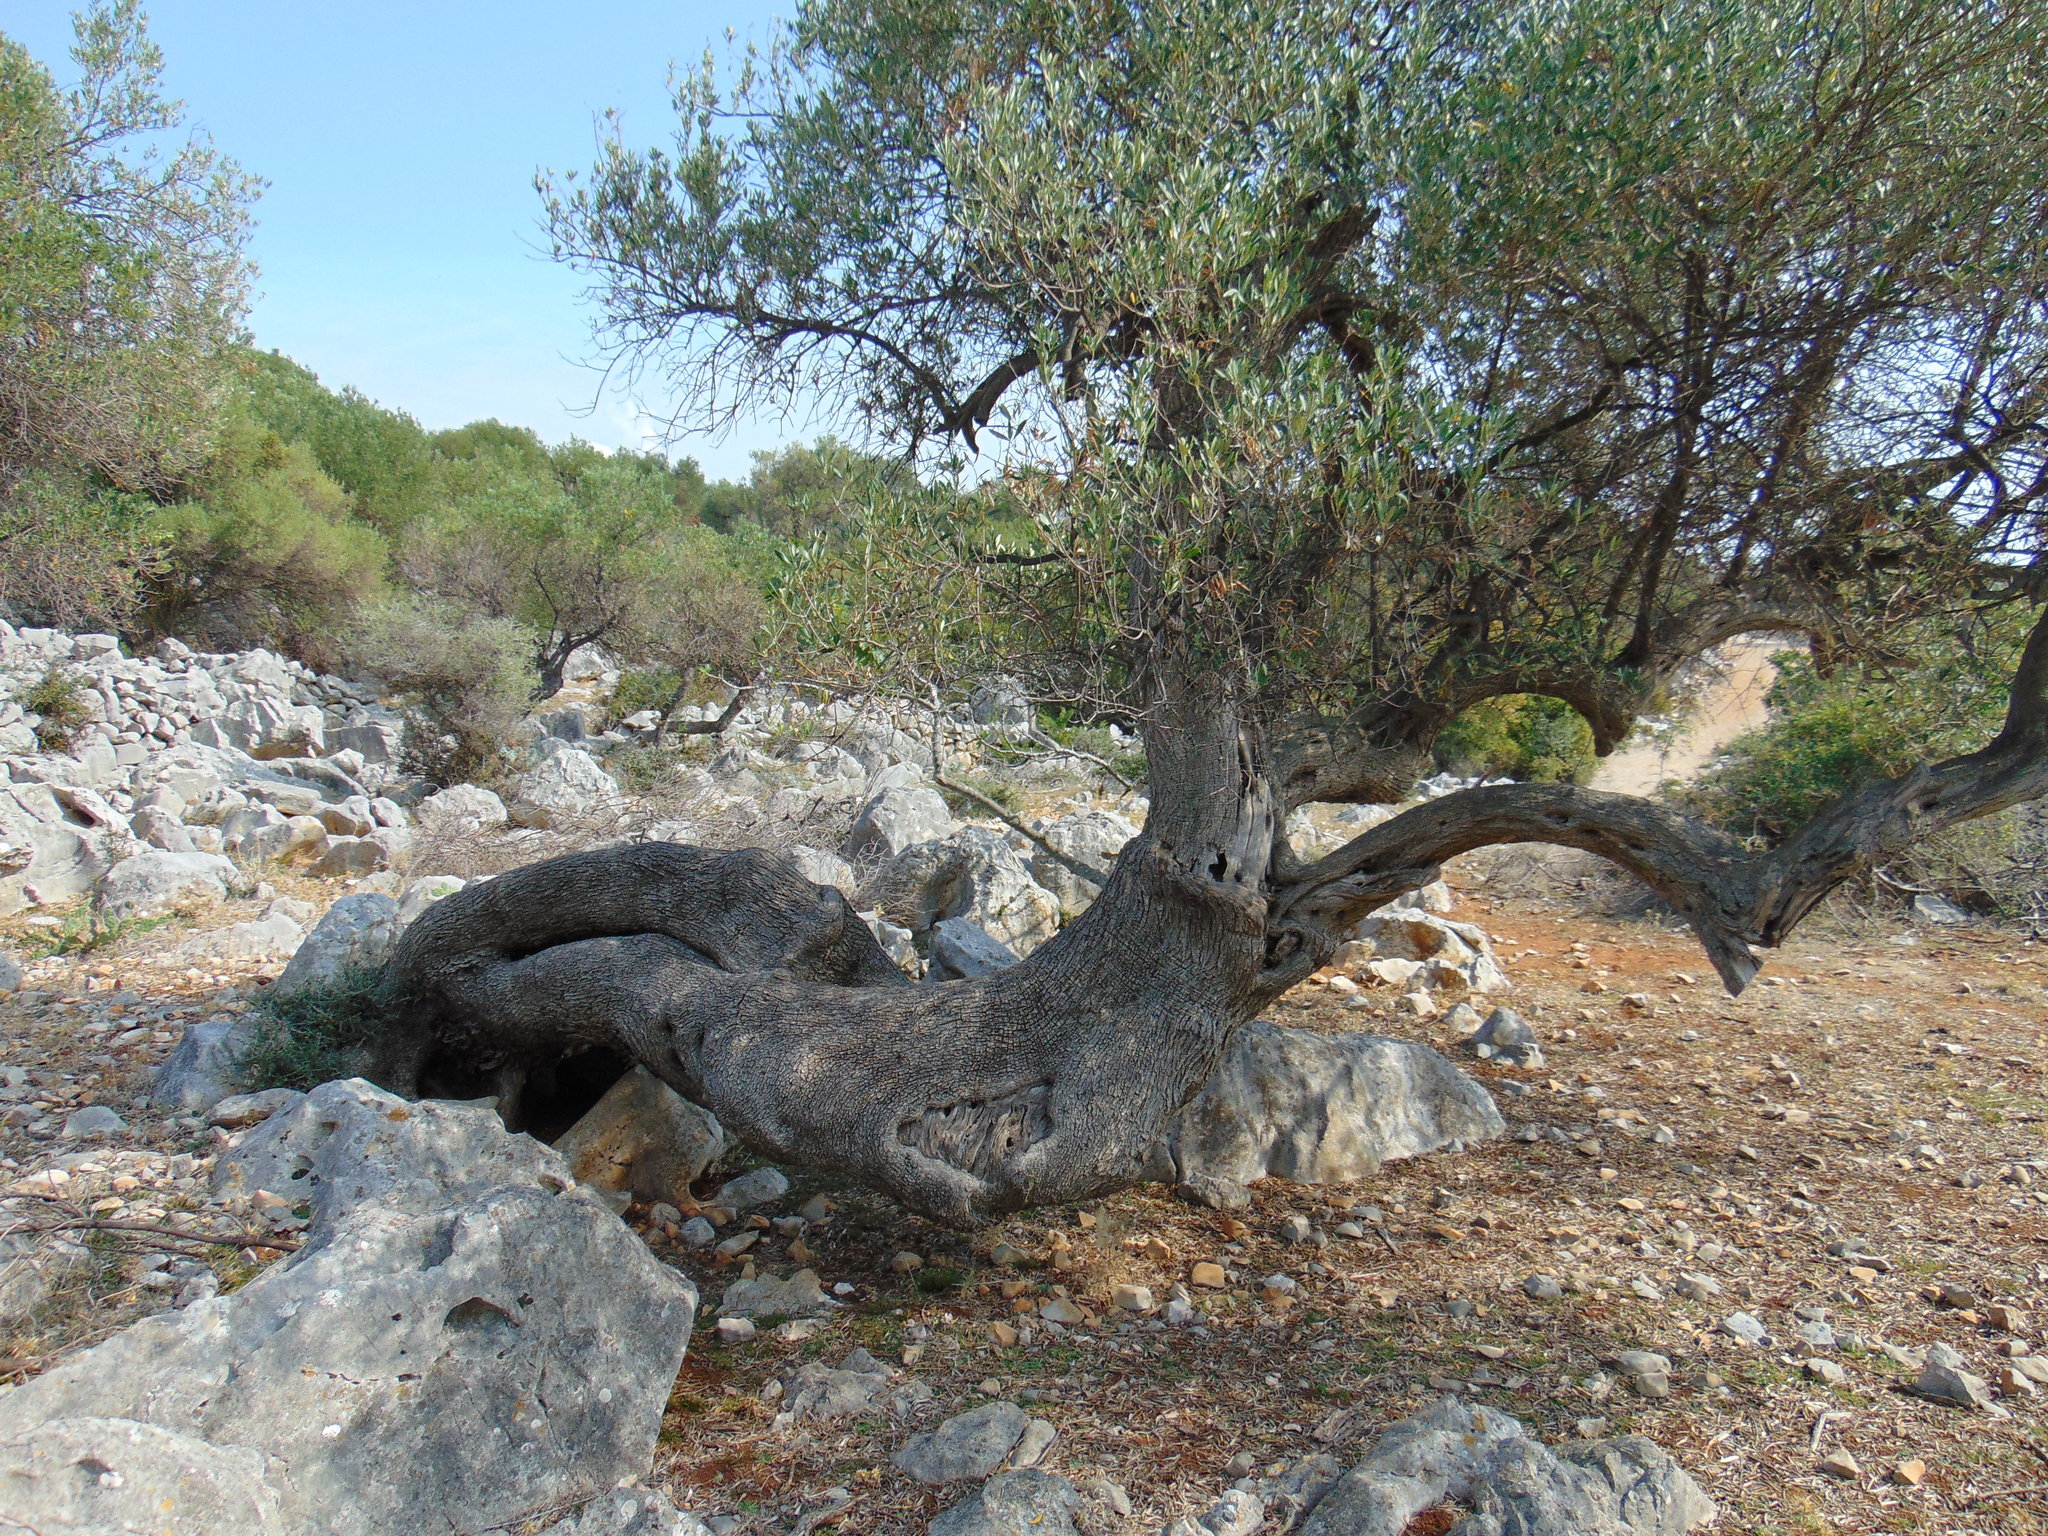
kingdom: Plantae
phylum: Tracheophyta
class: Magnoliopsida
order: Lamiales
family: Oleaceae
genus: Olea
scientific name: Olea europaea
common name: Olive
